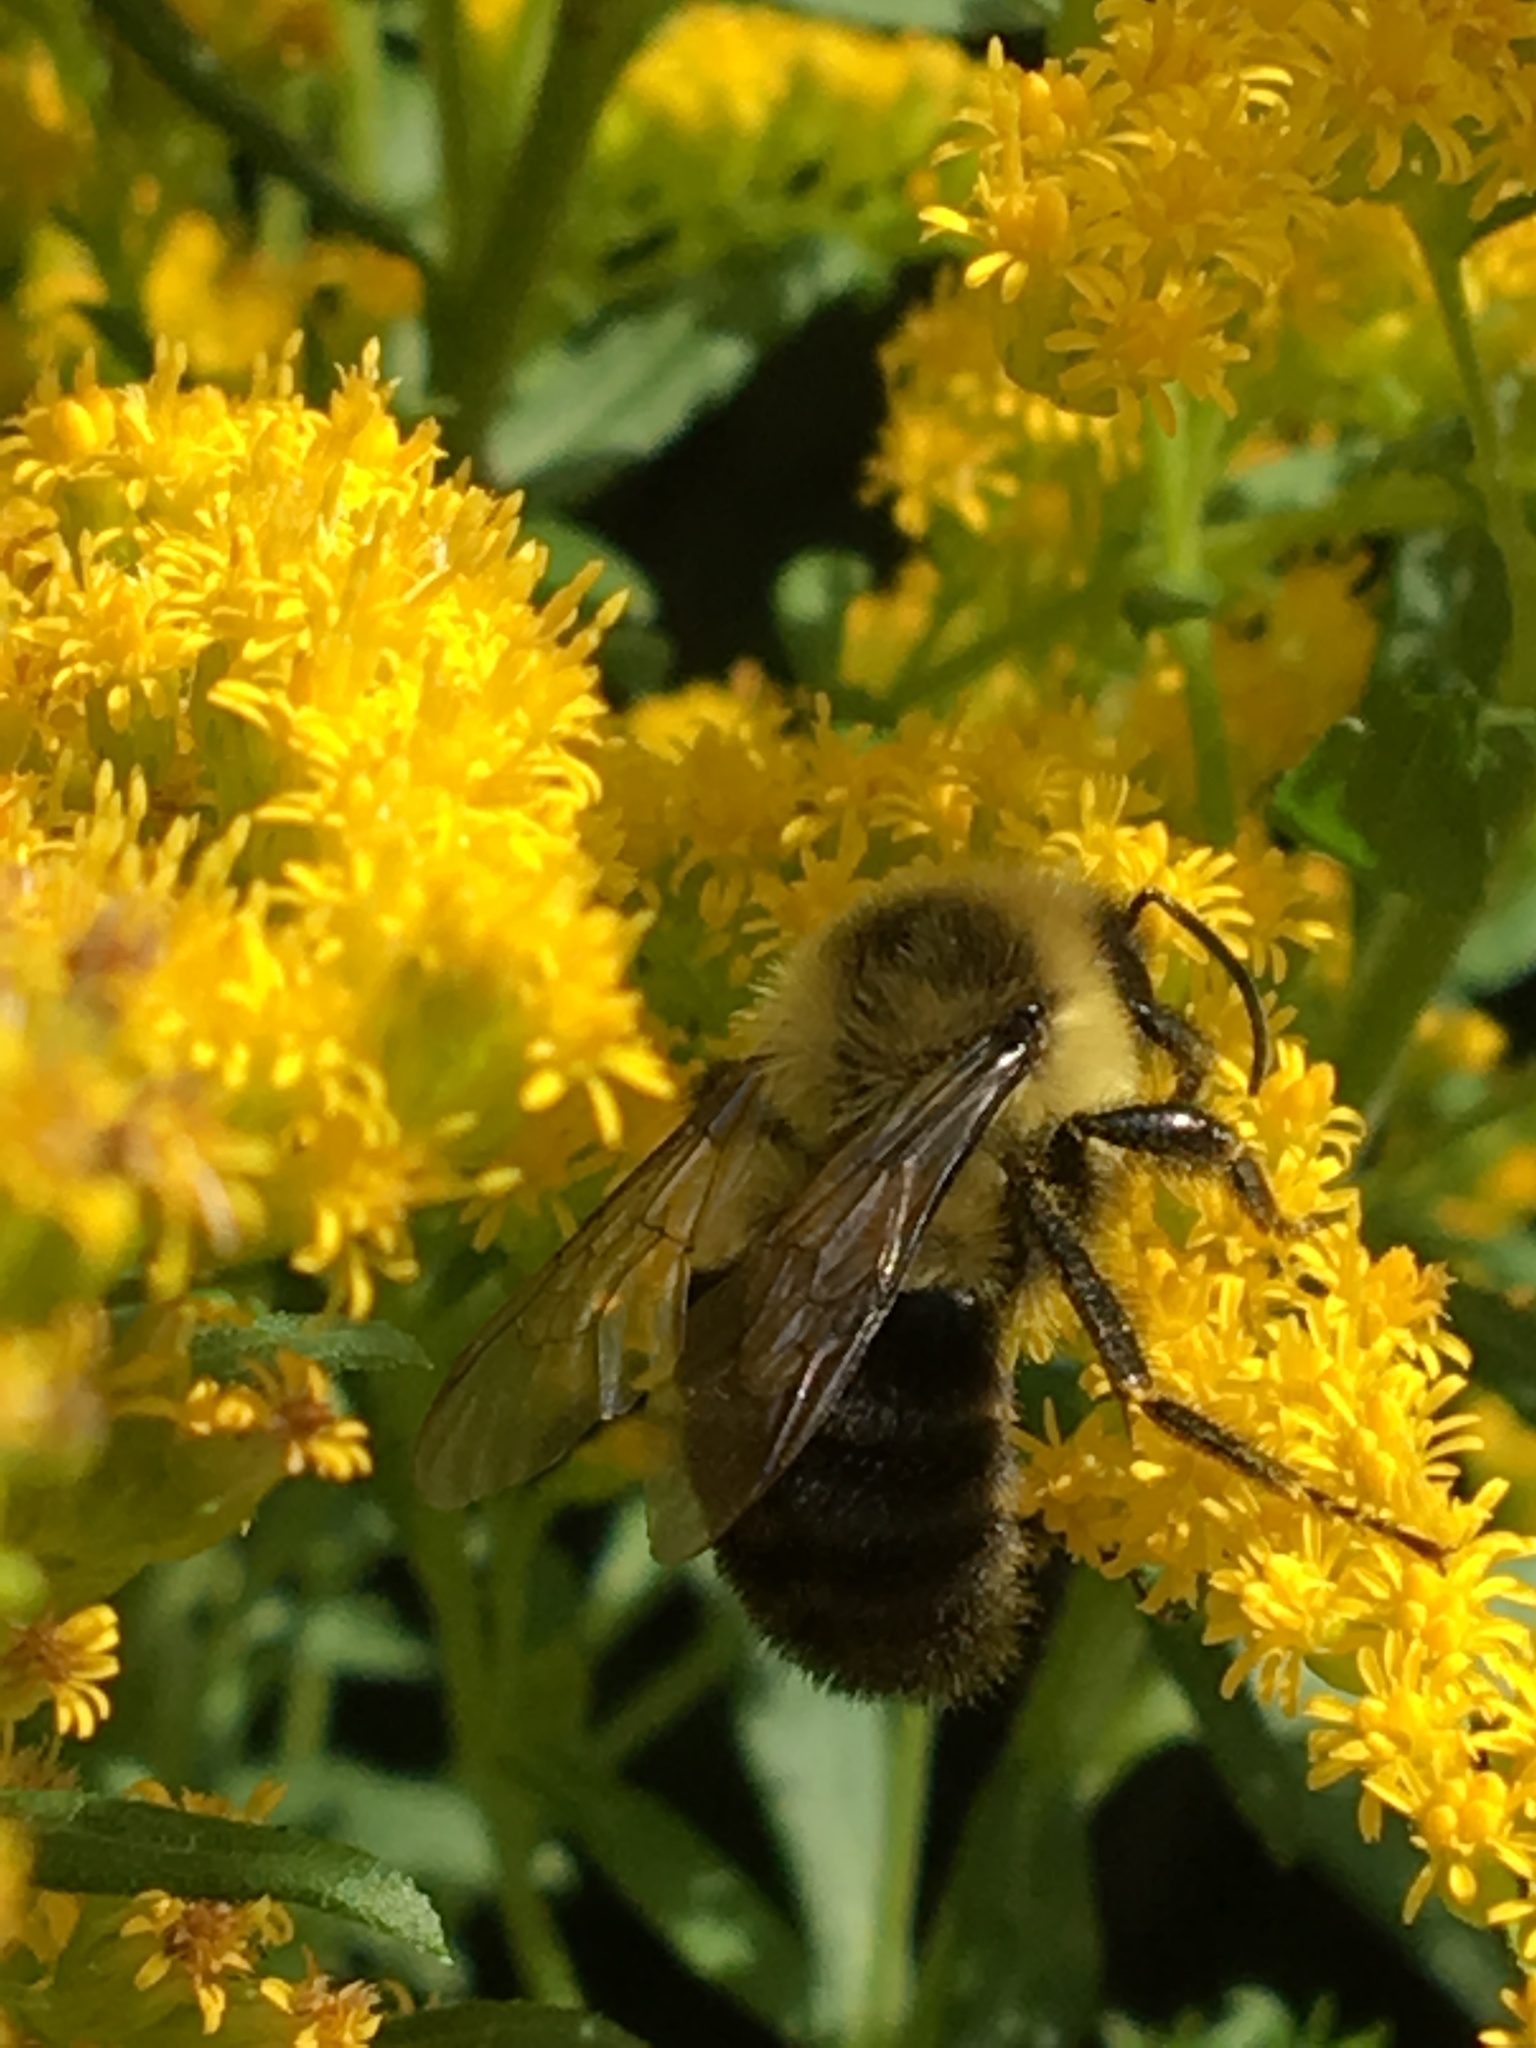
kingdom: Animalia
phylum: Arthropoda
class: Insecta
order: Hymenoptera
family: Apidae
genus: Bombus
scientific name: Bombus impatiens
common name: Common eastern bumble bee
